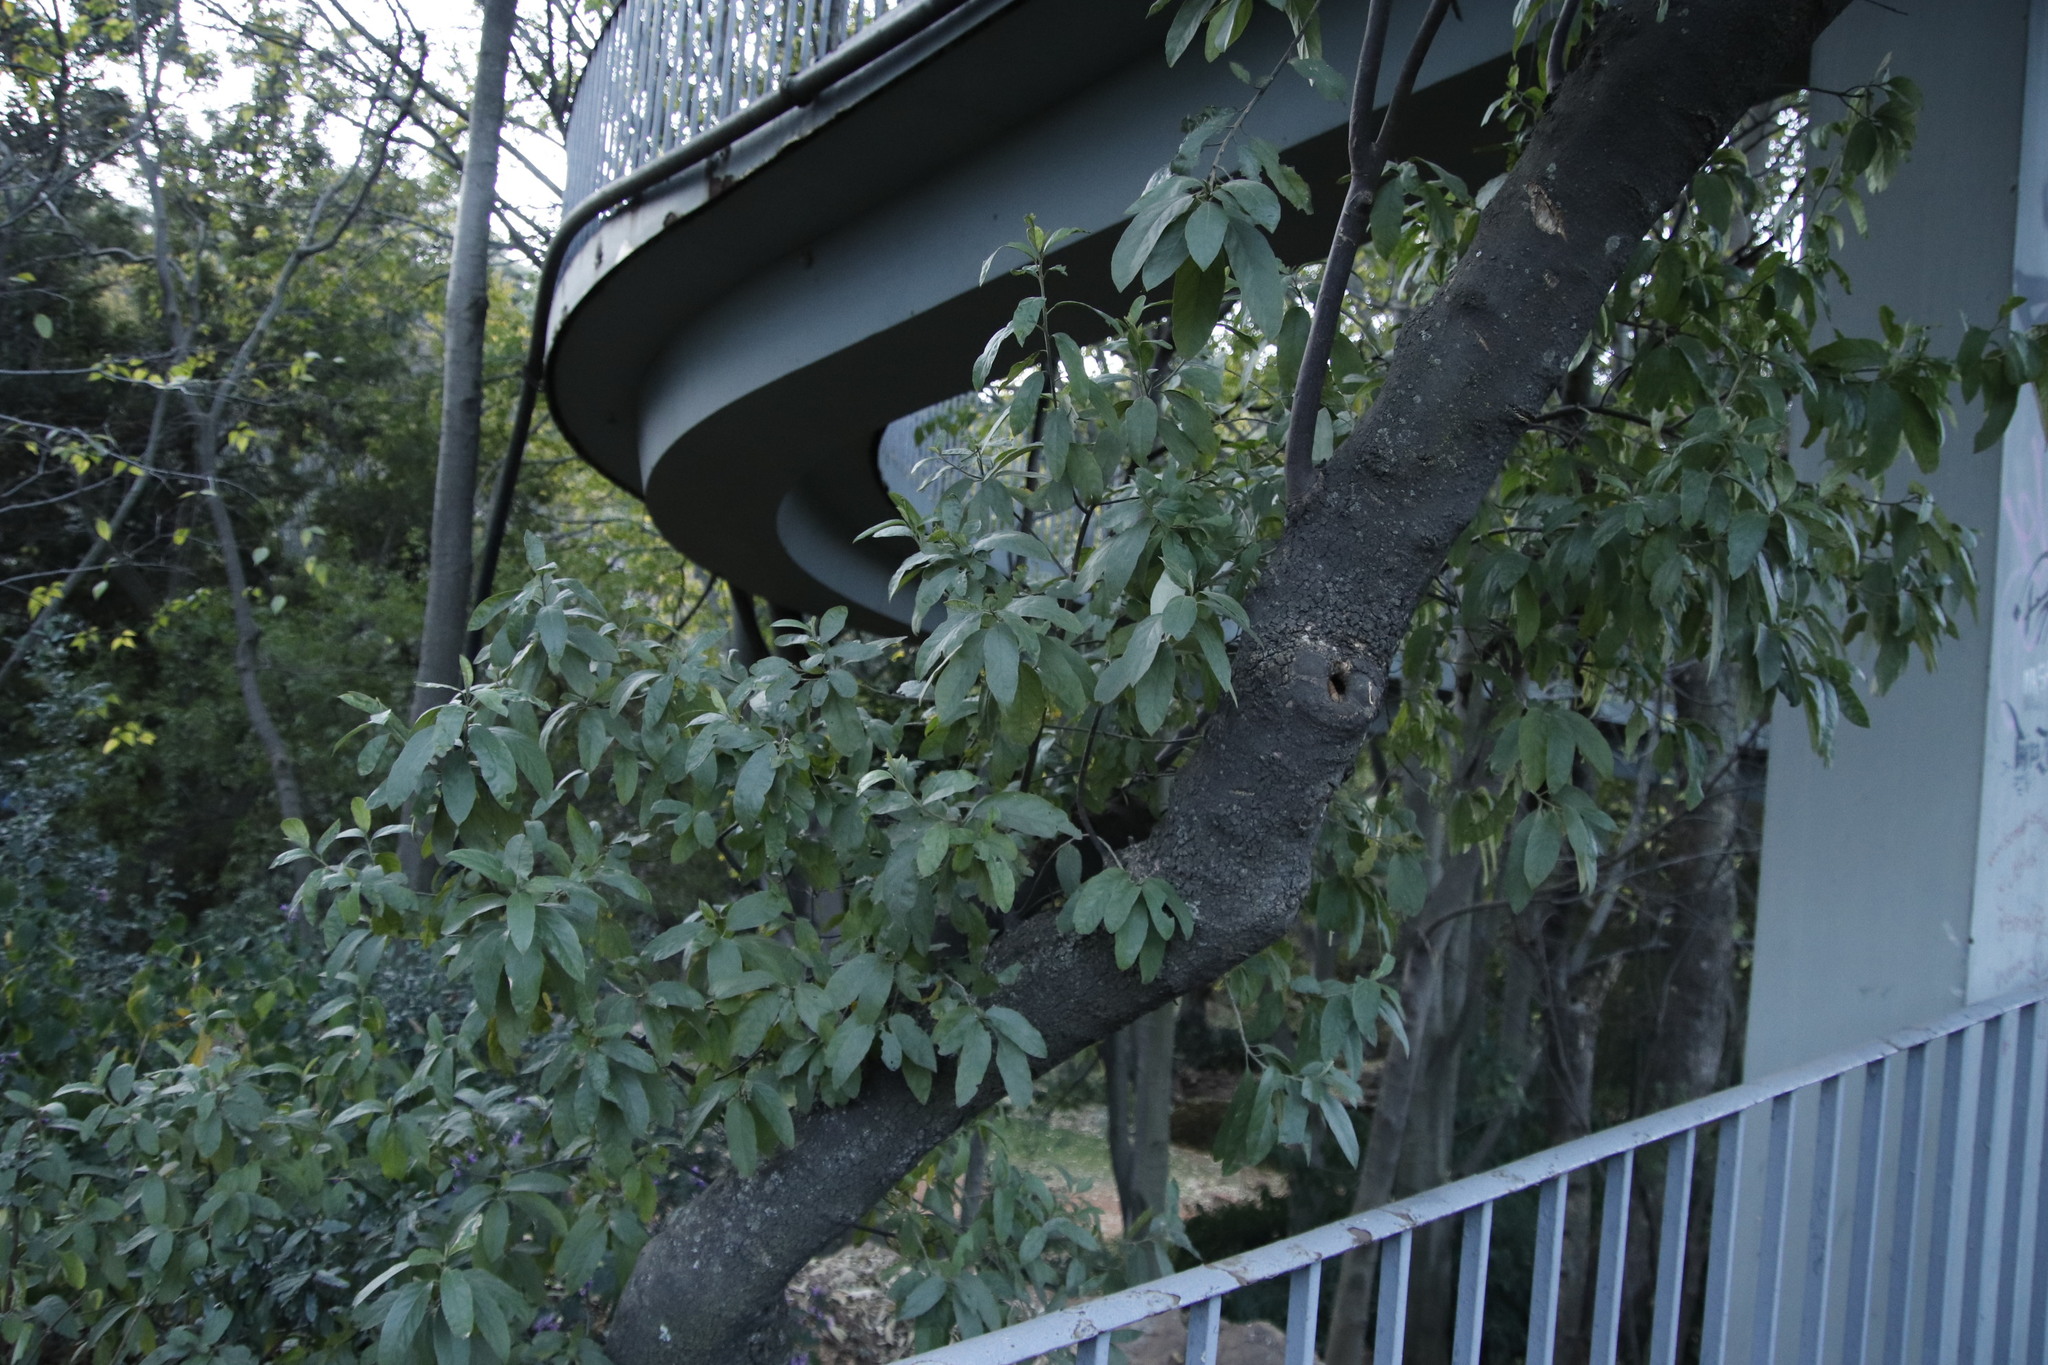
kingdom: Plantae
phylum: Tracheophyta
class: Magnoliopsida
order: Malpighiales
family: Achariaceae
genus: Kiggelaria
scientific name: Kiggelaria africana
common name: Wild peach
